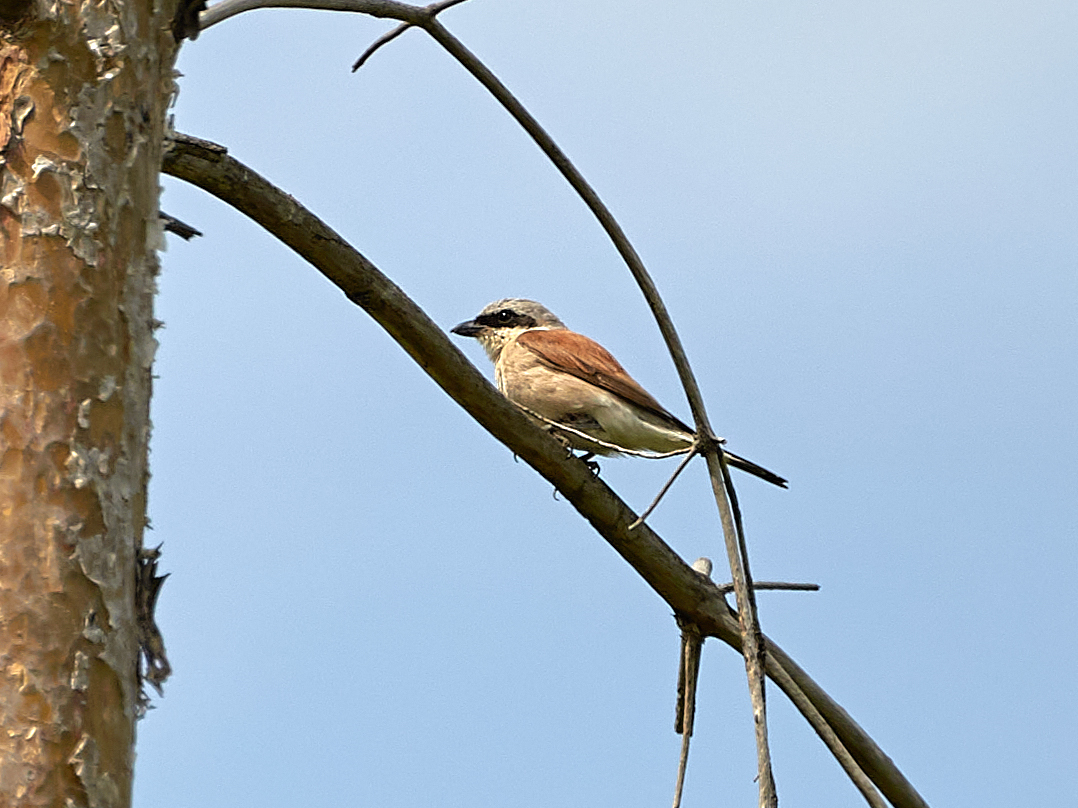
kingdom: Animalia
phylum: Chordata
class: Aves
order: Passeriformes
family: Laniidae
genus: Lanius
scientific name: Lanius collurio
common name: Red-backed shrike
